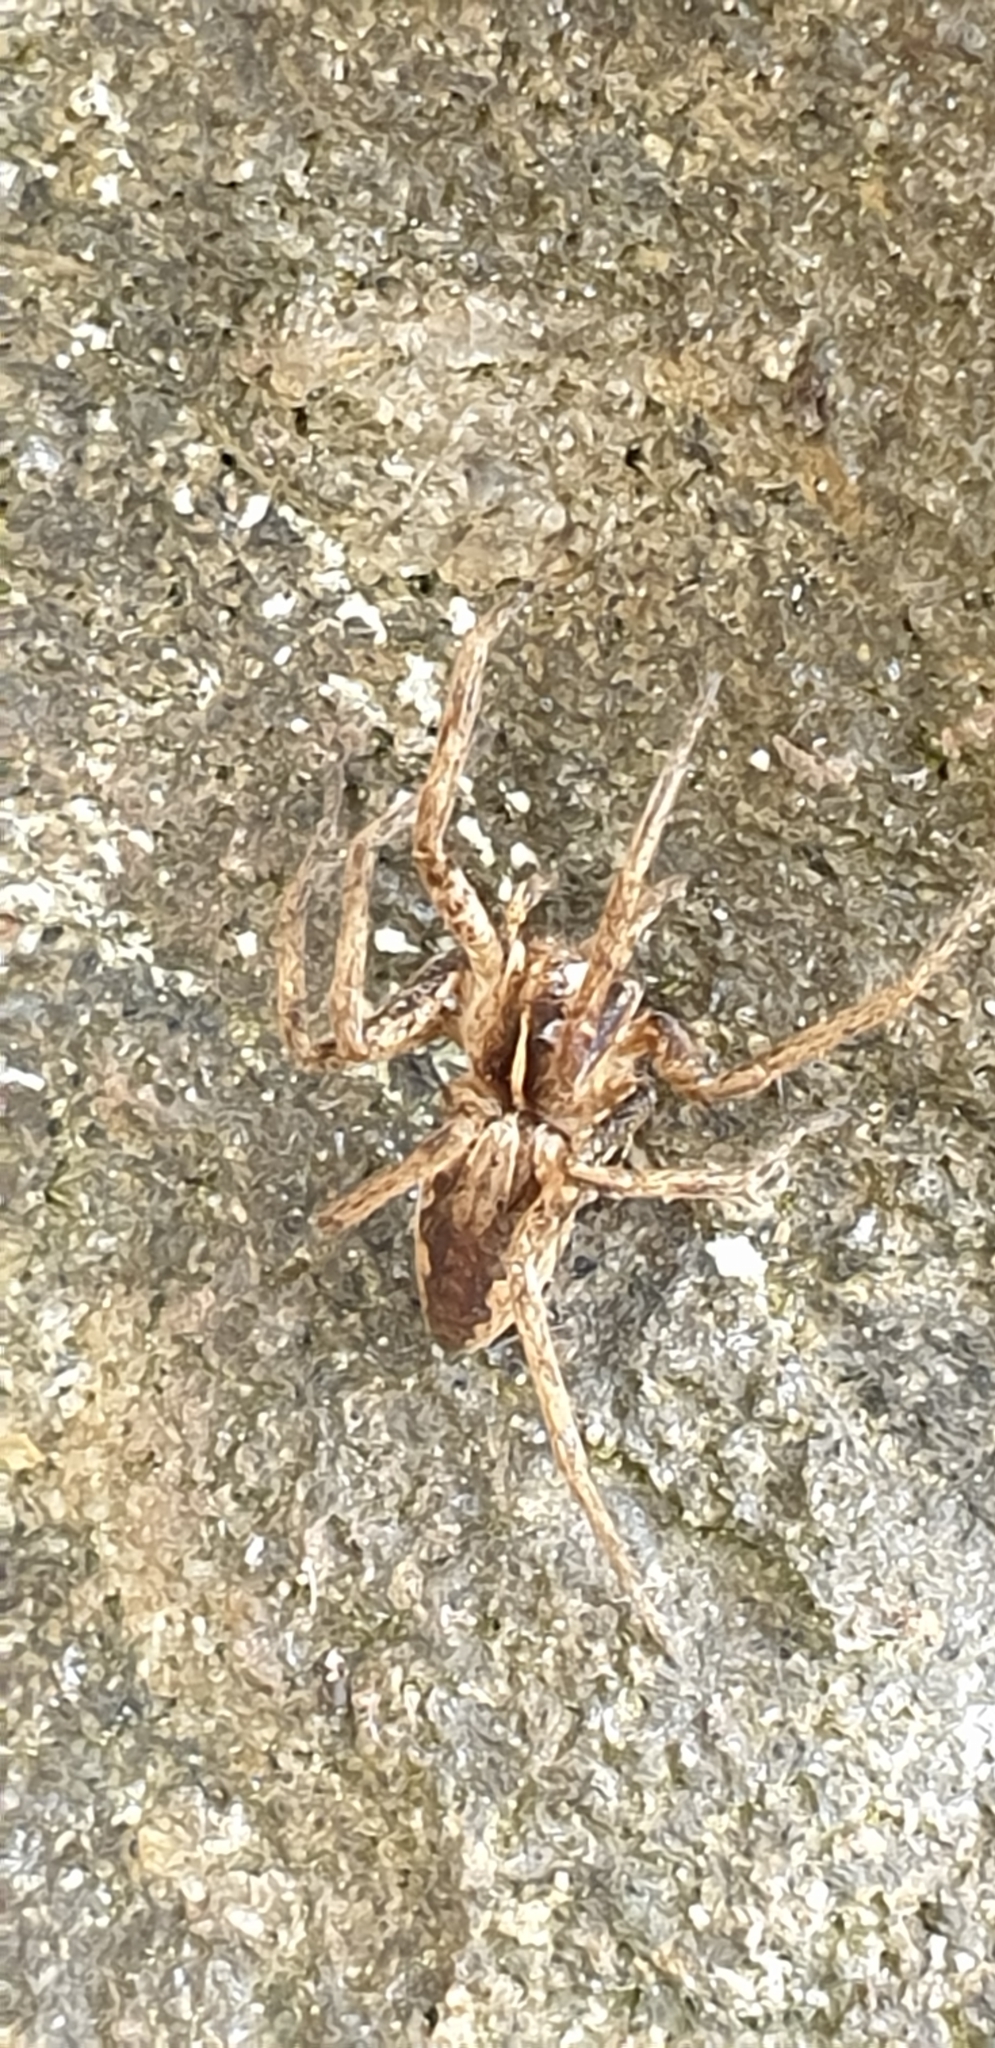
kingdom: Animalia
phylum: Arthropoda
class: Arachnida
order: Araneae
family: Pisauridae
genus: Pisaura
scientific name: Pisaura mirabilis
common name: Tent spider
